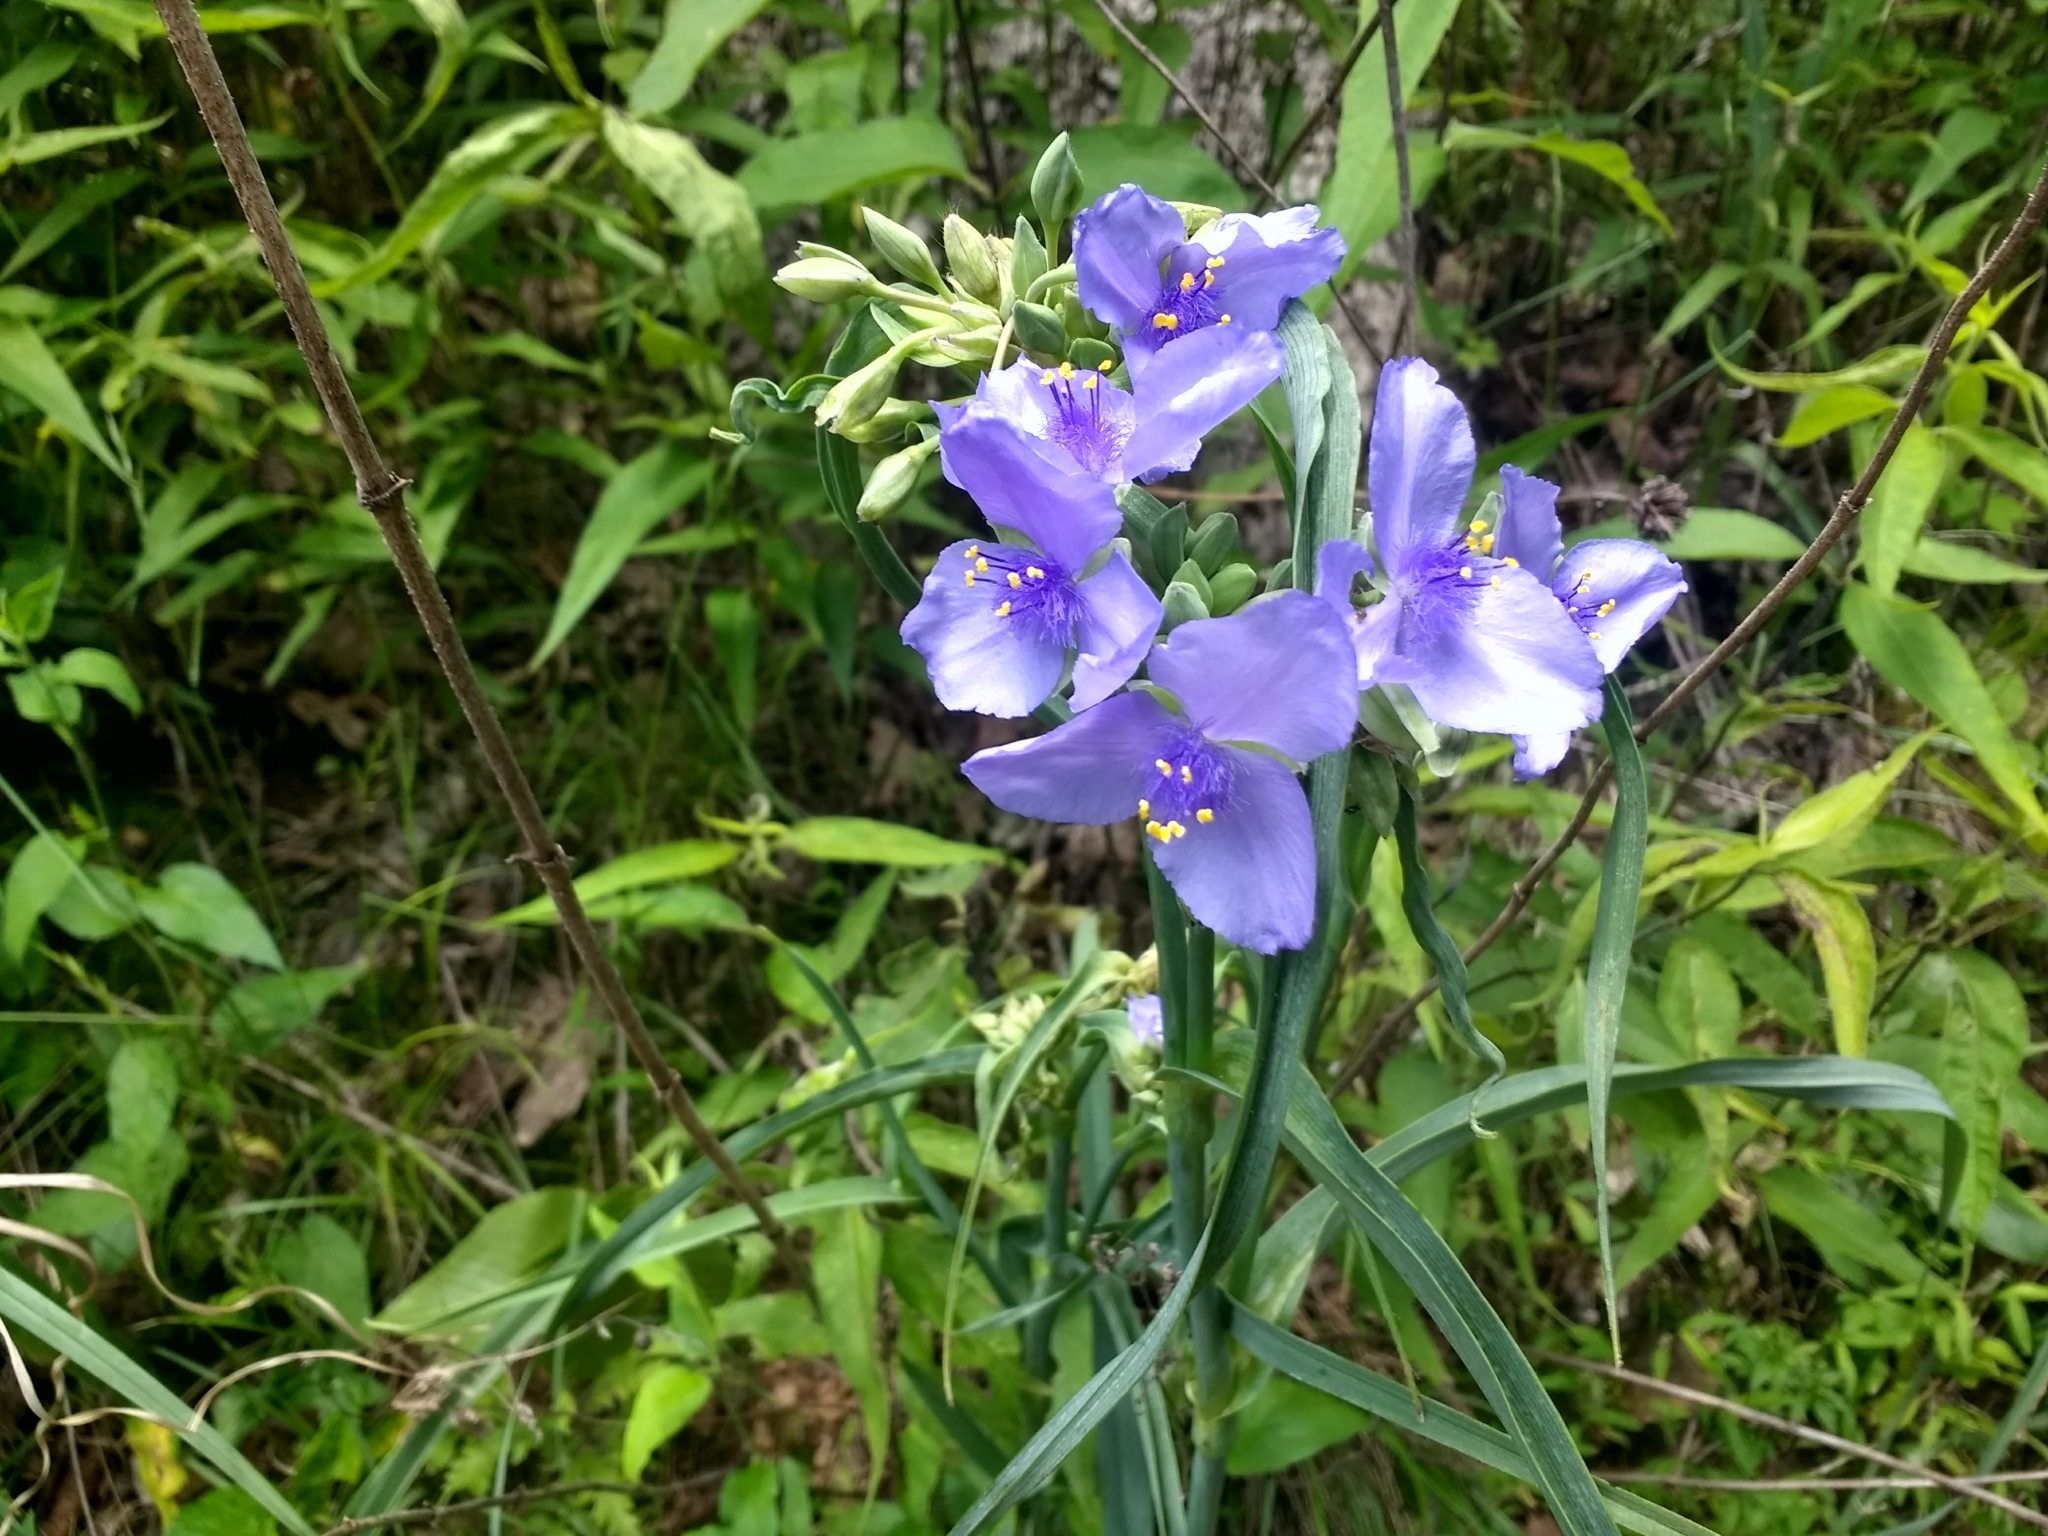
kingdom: Plantae
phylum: Tracheophyta
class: Liliopsida
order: Commelinales
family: Commelinaceae
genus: Tradescantia
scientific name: Tradescantia ohiensis
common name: Ohio spiderwort
